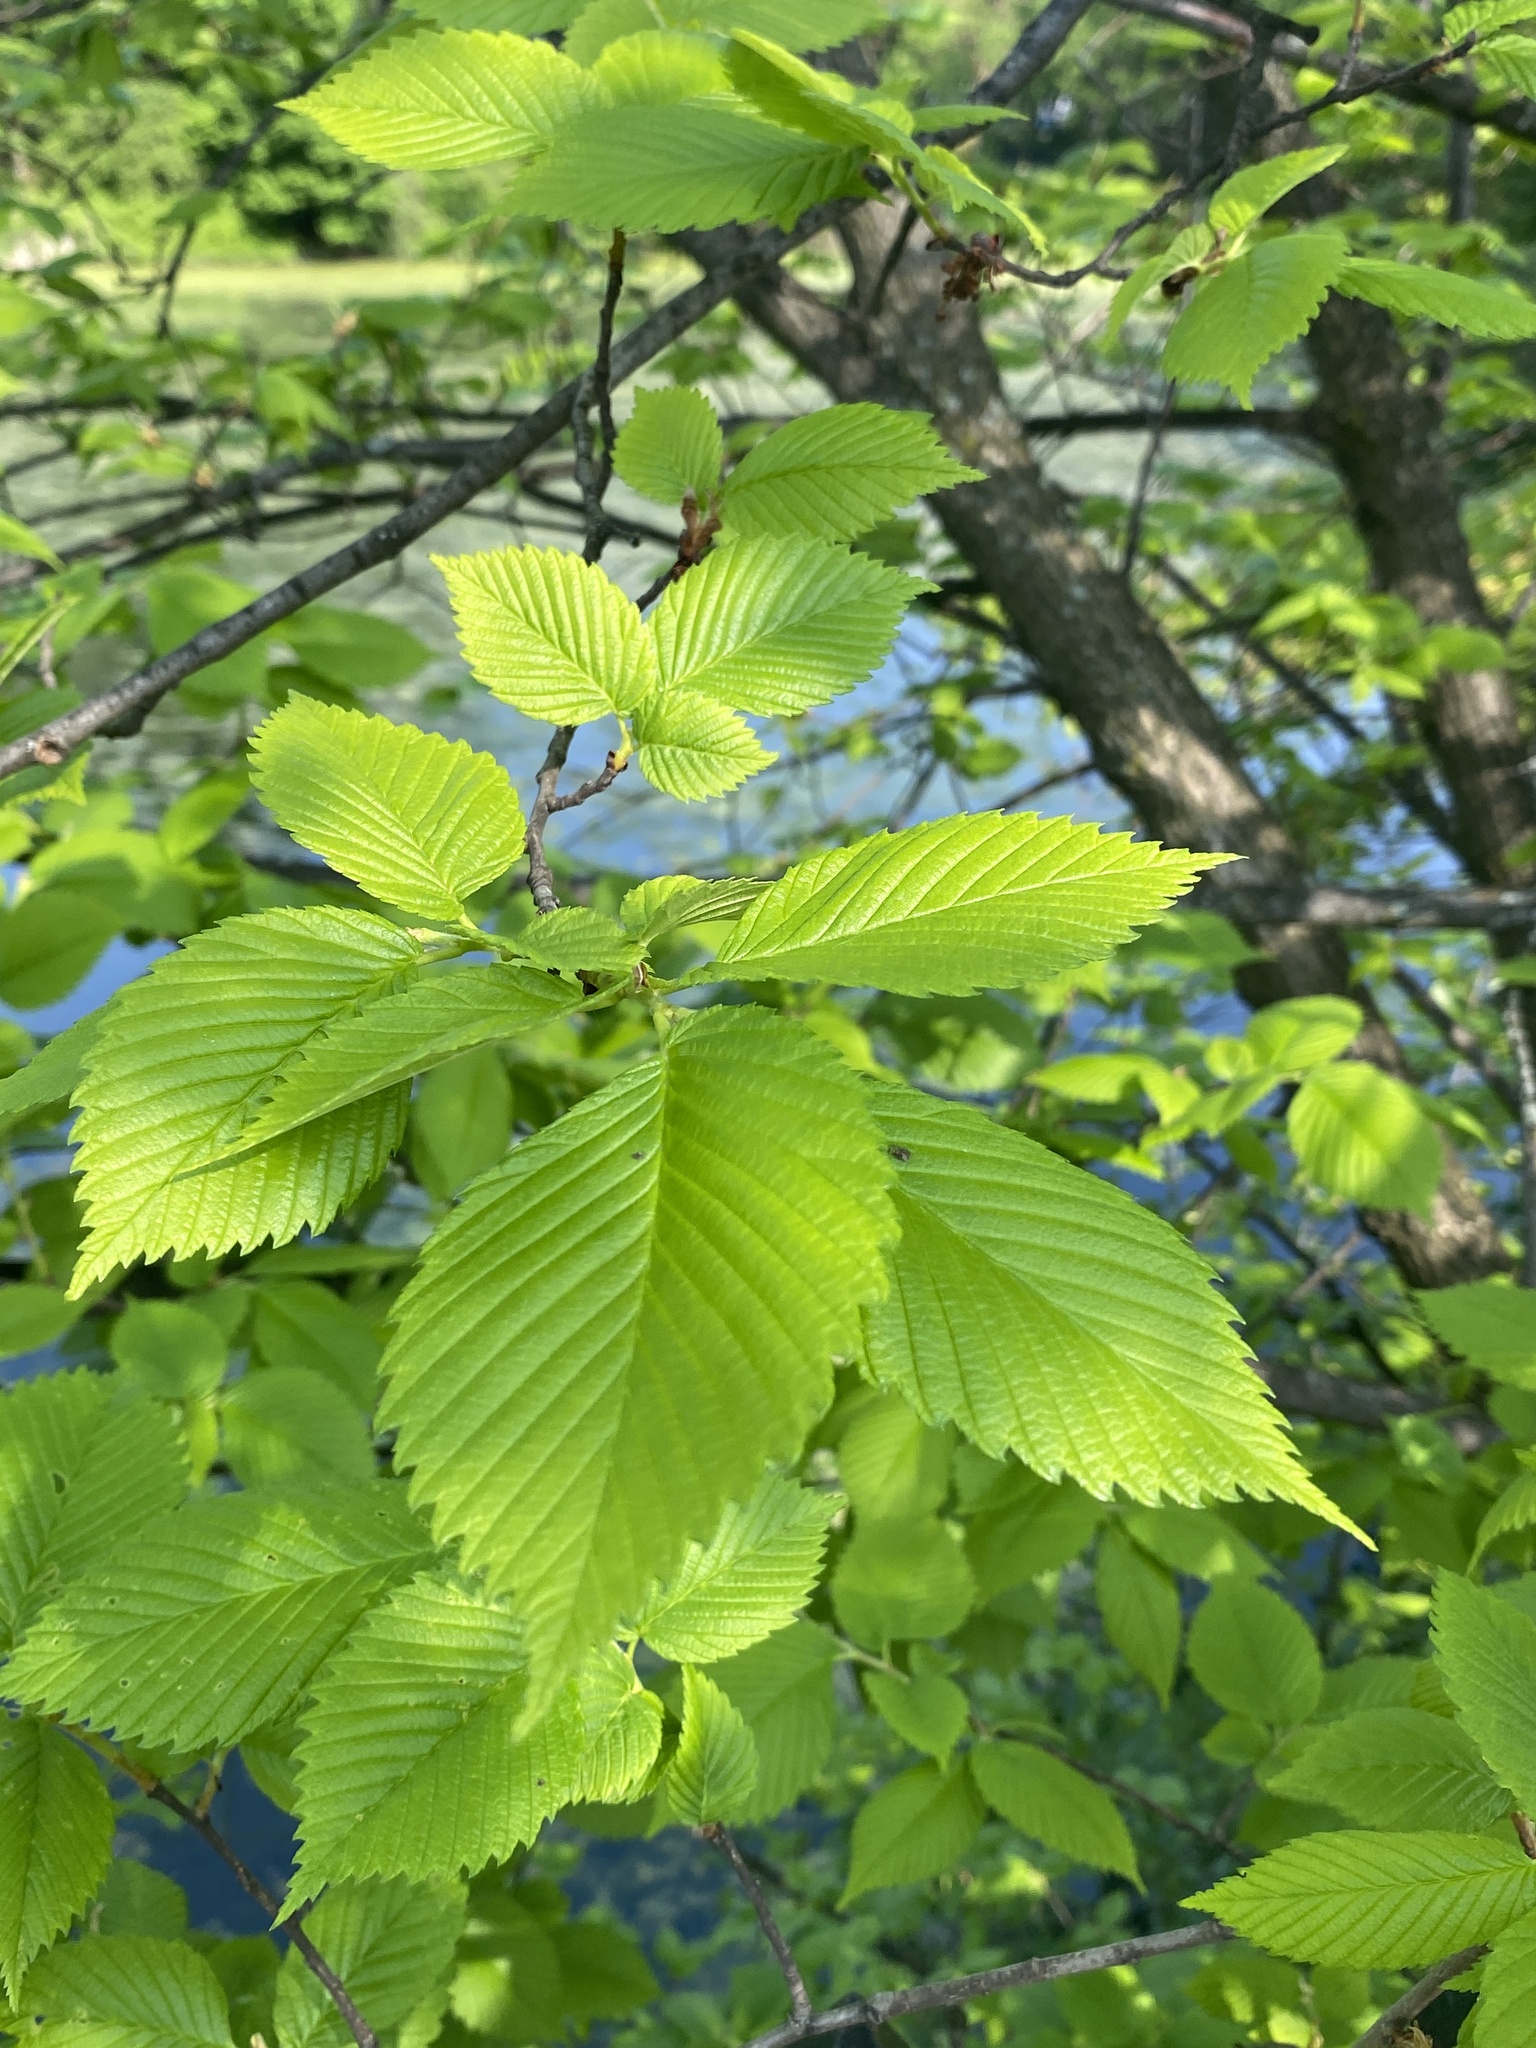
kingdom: Plantae
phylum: Tracheophyta
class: Magnoliopsida
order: Rosales
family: Ulmaceae
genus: Ulmus
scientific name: Ulmus americana
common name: American elm
